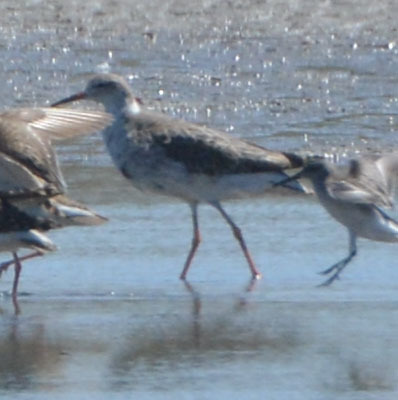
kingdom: Animalia
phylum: Chordata
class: Aves
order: Charadriiformes
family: Scolopacidae
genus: Calidris
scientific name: Calidris pugnax
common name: Ruff
